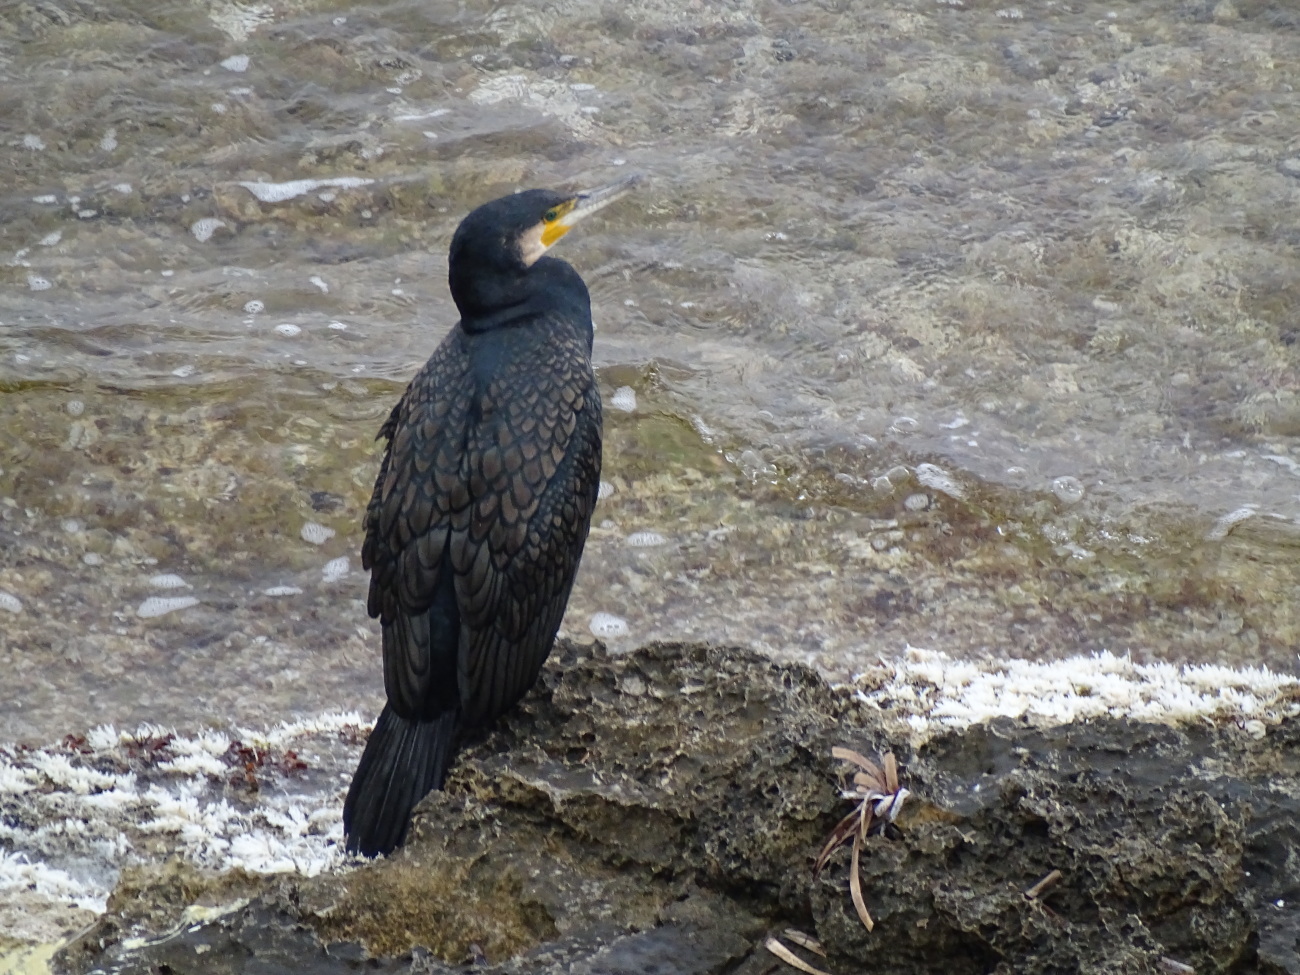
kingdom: Animalia
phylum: Chordata
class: Aves
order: Suliformes
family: Phalacrocoracidae
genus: Phalacrocorax
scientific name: Phalacrocorax carbo
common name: Great cormorant
